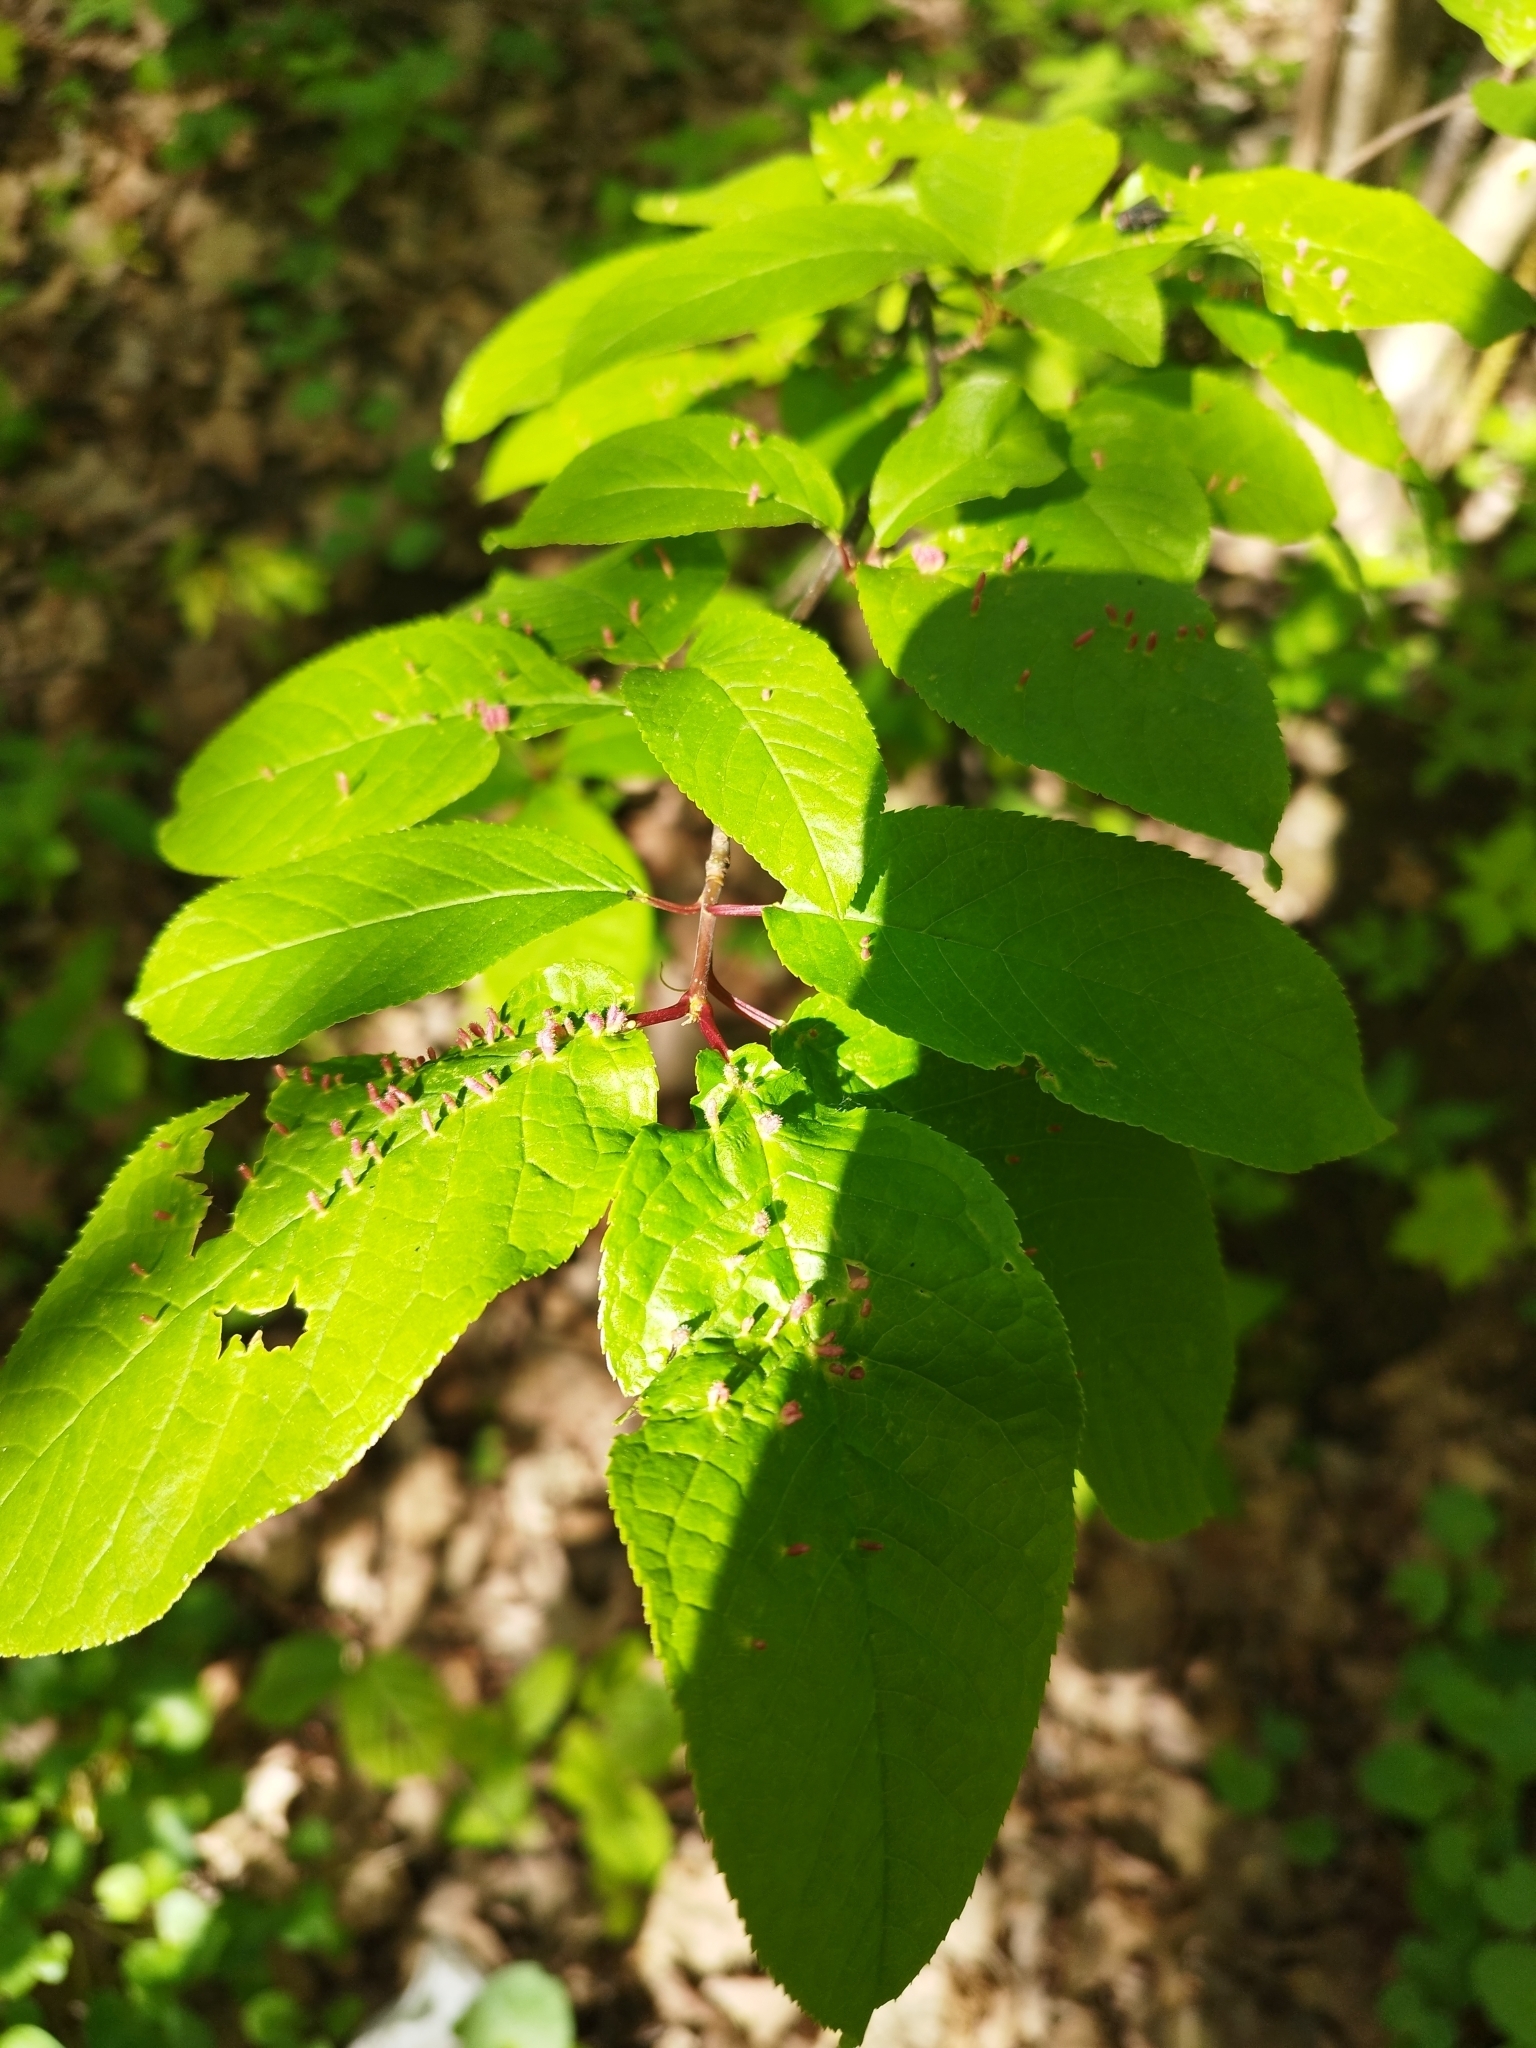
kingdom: Plantae
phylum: Tracheophyta
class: Magnoliopsida
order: Rosales
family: Rosaceae
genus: Prunus
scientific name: Prunus padus
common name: Bird cherry
